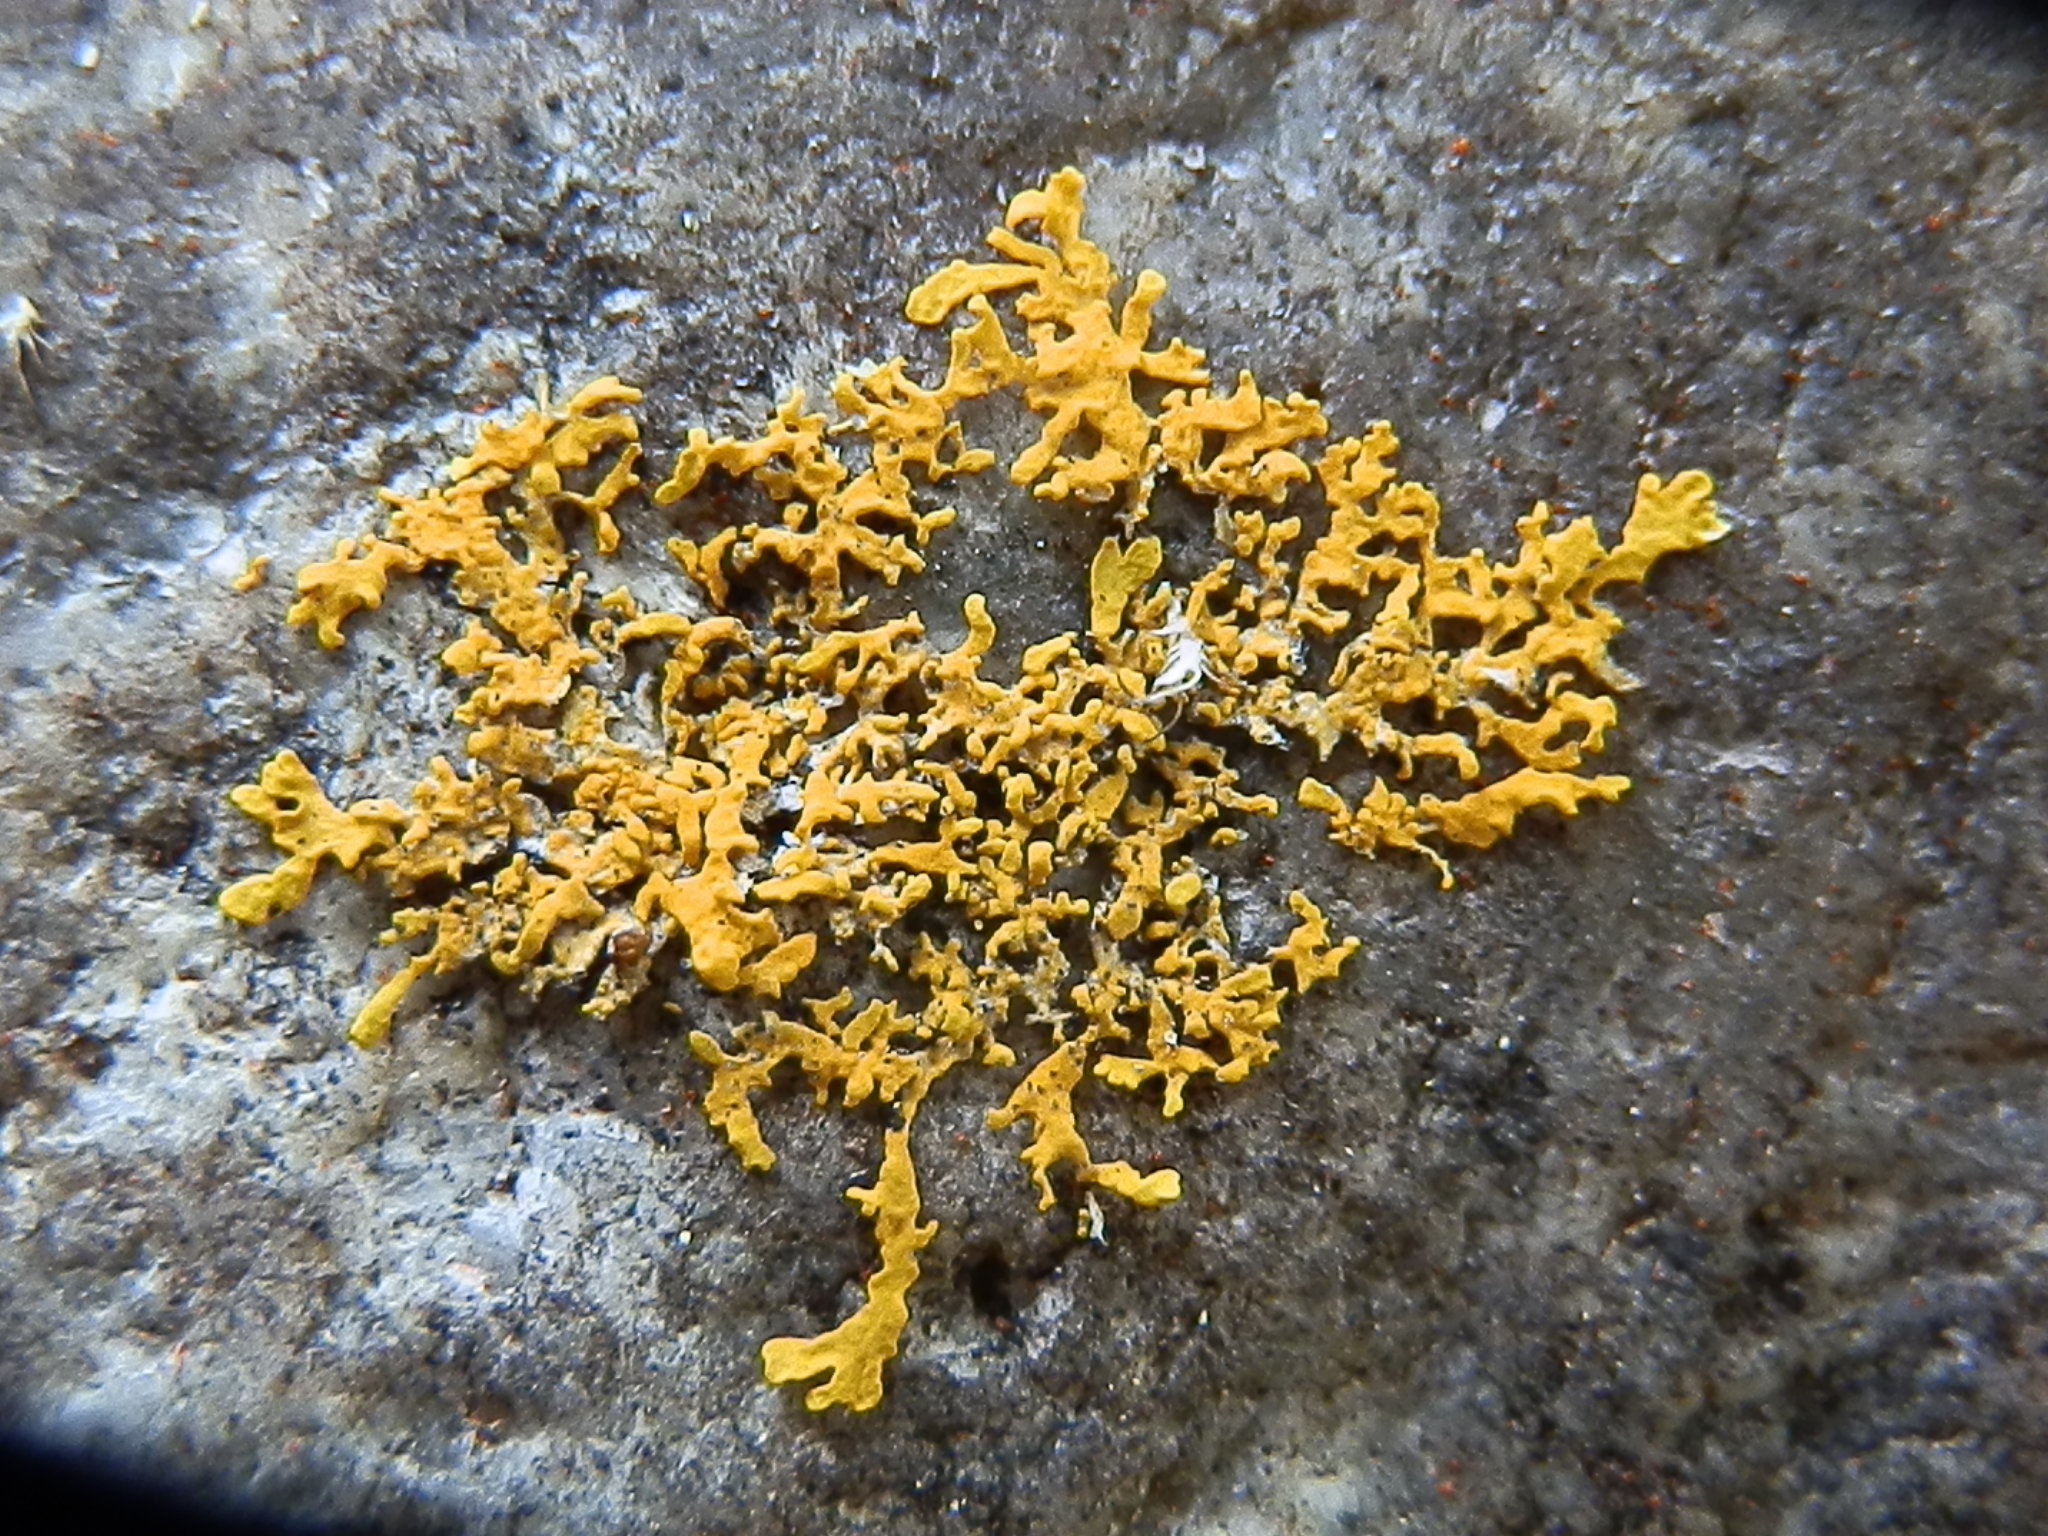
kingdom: Fungi
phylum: Ascomycota
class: Lecanoromycetes
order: Teloschistales
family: Teloschistaceae
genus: Xanthoria
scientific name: Xanthoria parietina
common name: Common orange lichen
